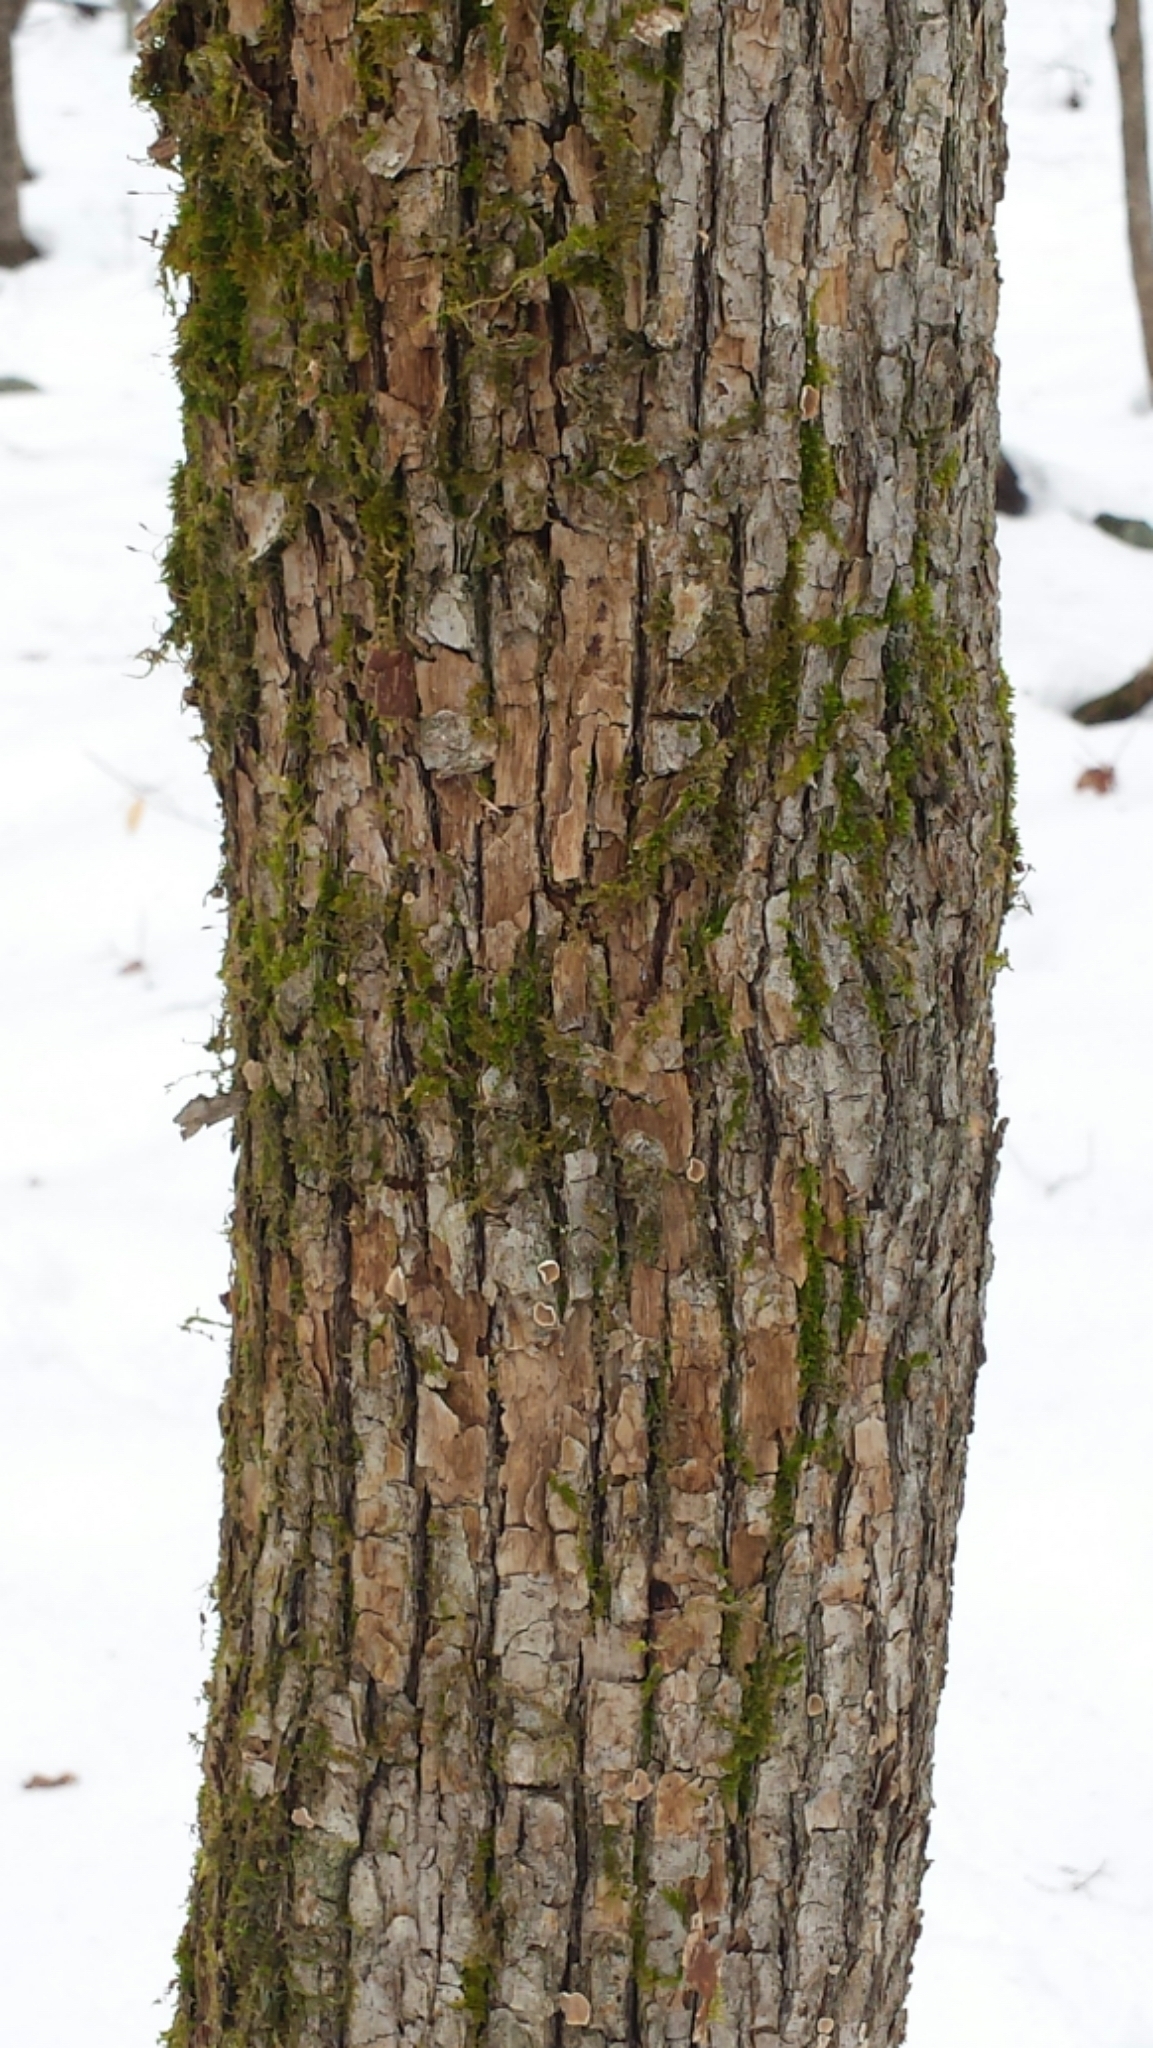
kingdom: Plantae
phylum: Tracheophyta
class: Magnoliopsida
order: Fagales
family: Betulaceae
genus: Ostrya
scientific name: Ostrya virginiana
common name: Ironwood
